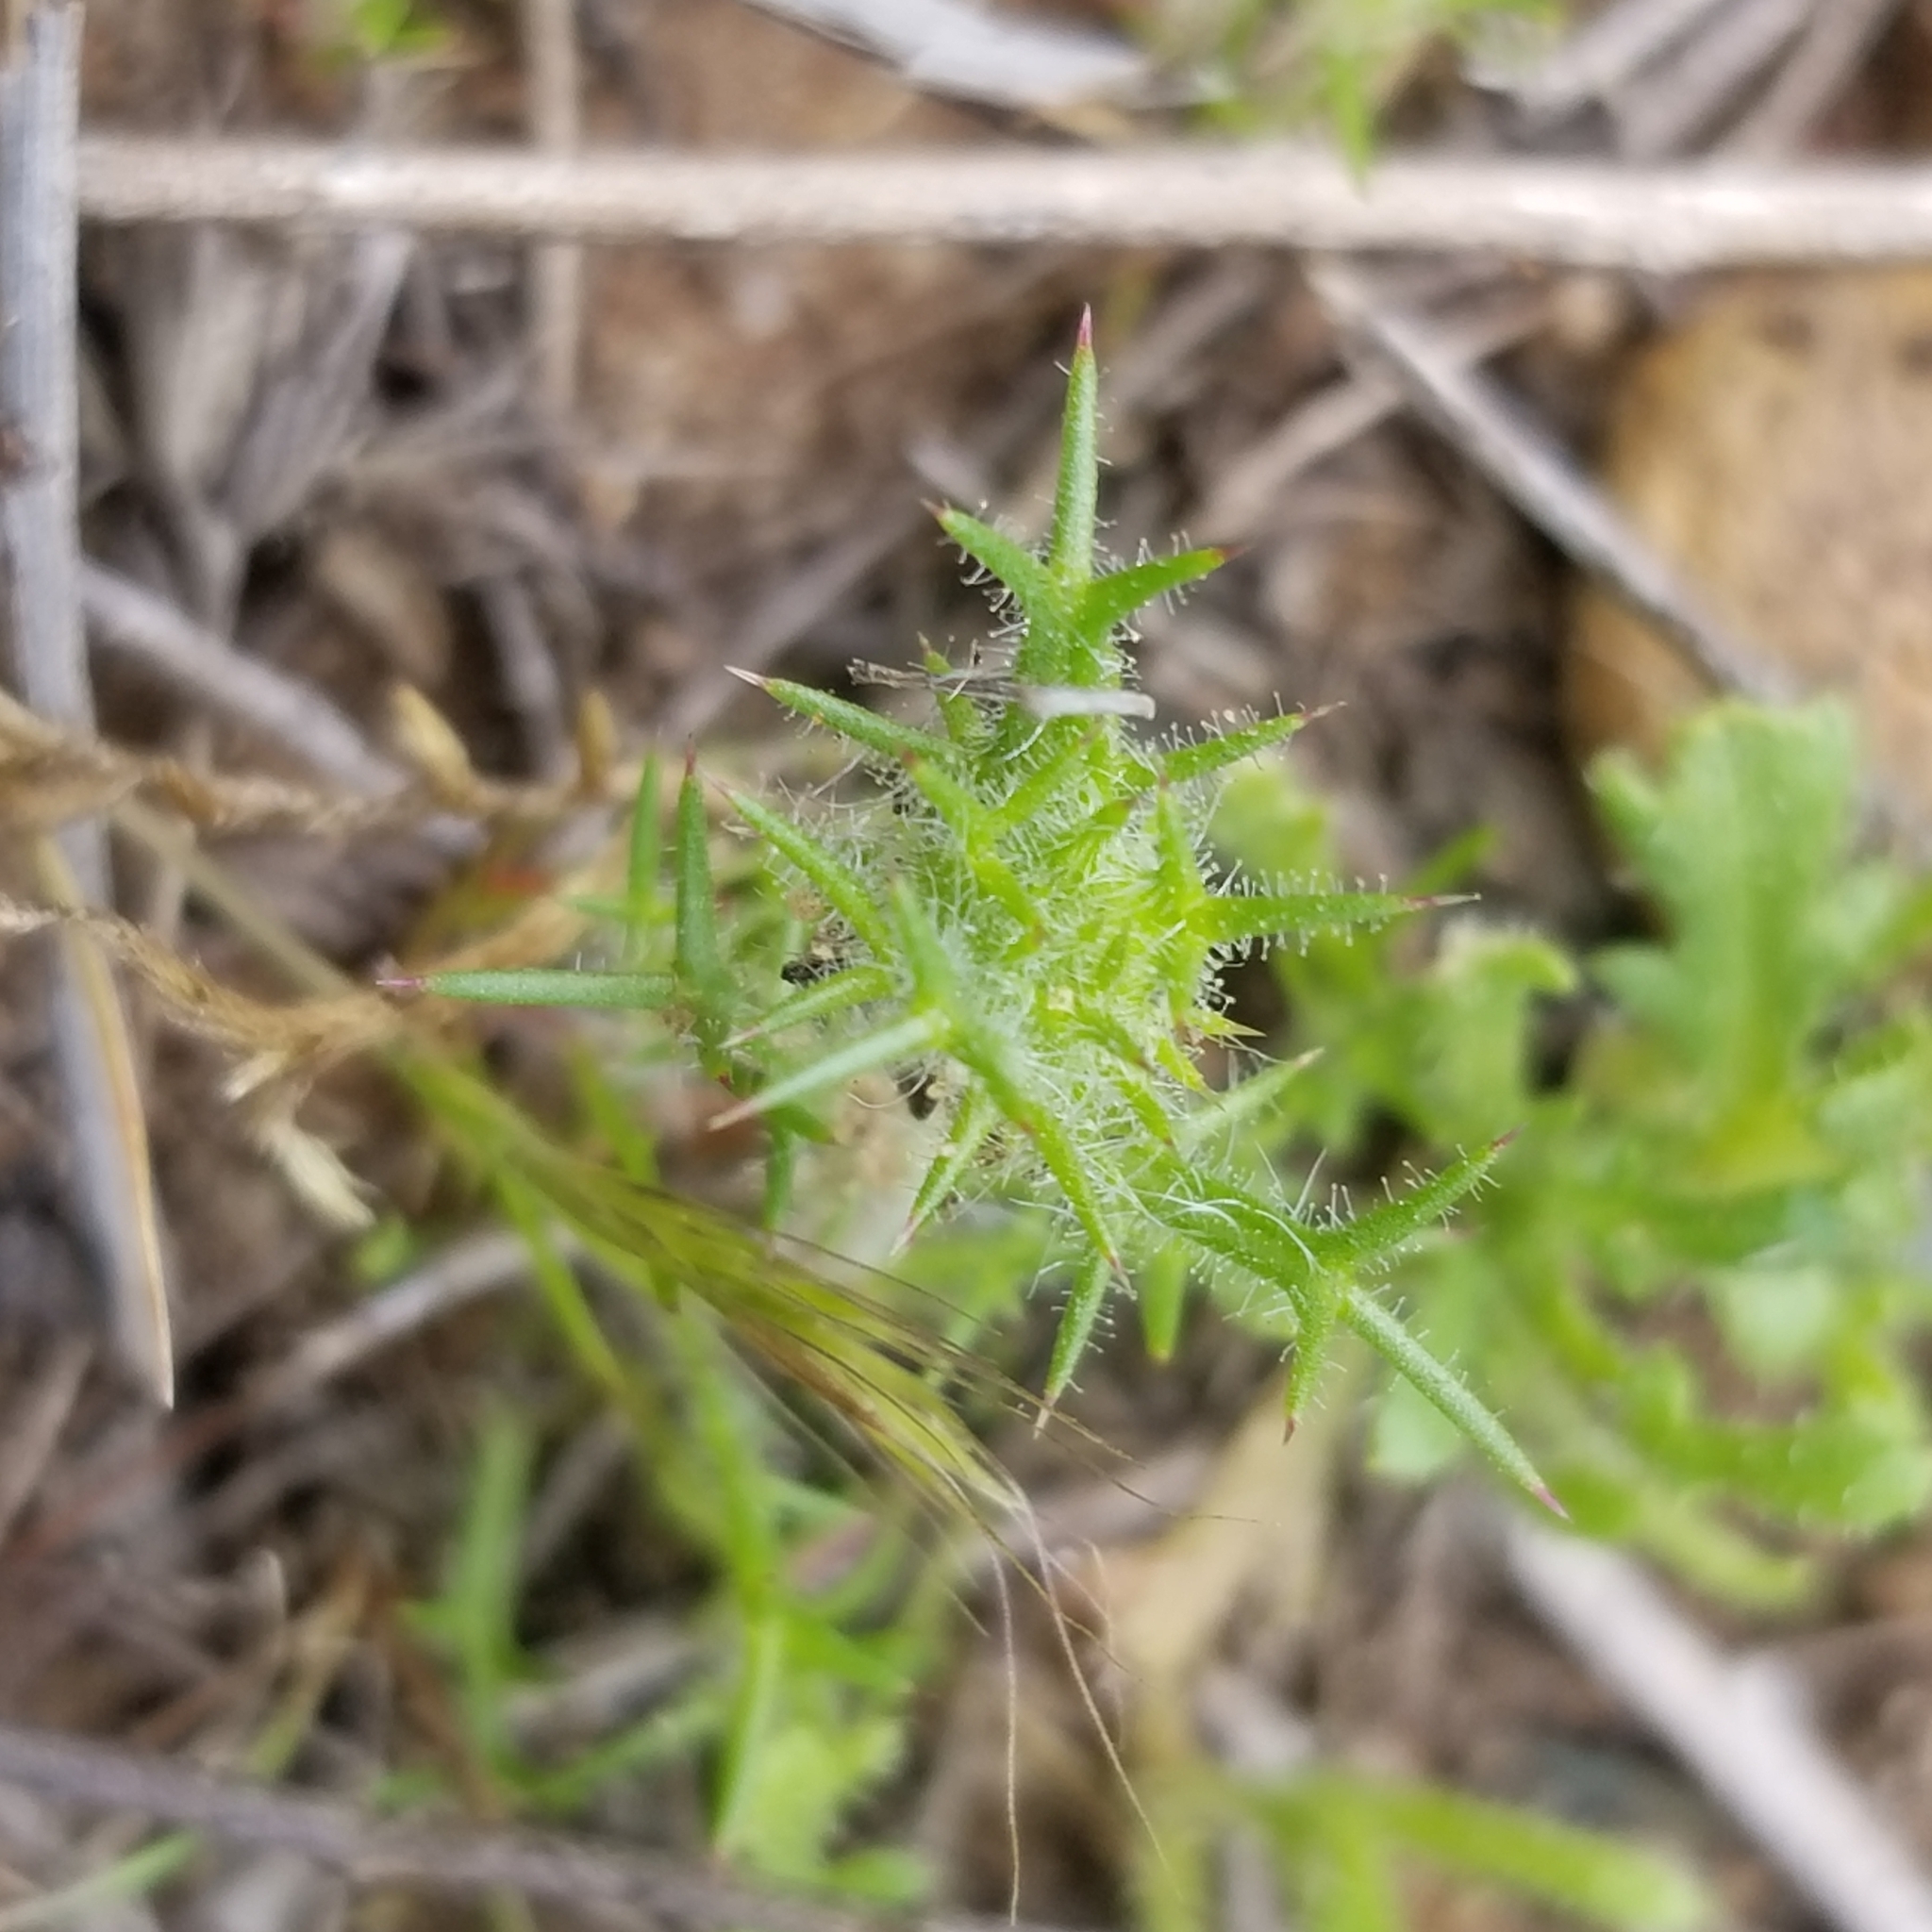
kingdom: Plantae
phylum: Tracheophyta
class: Magnoliopsida
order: Ericales
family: Polemoniaceae
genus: Navarretia
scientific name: Navarretia hamata
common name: Hooked navarretia
